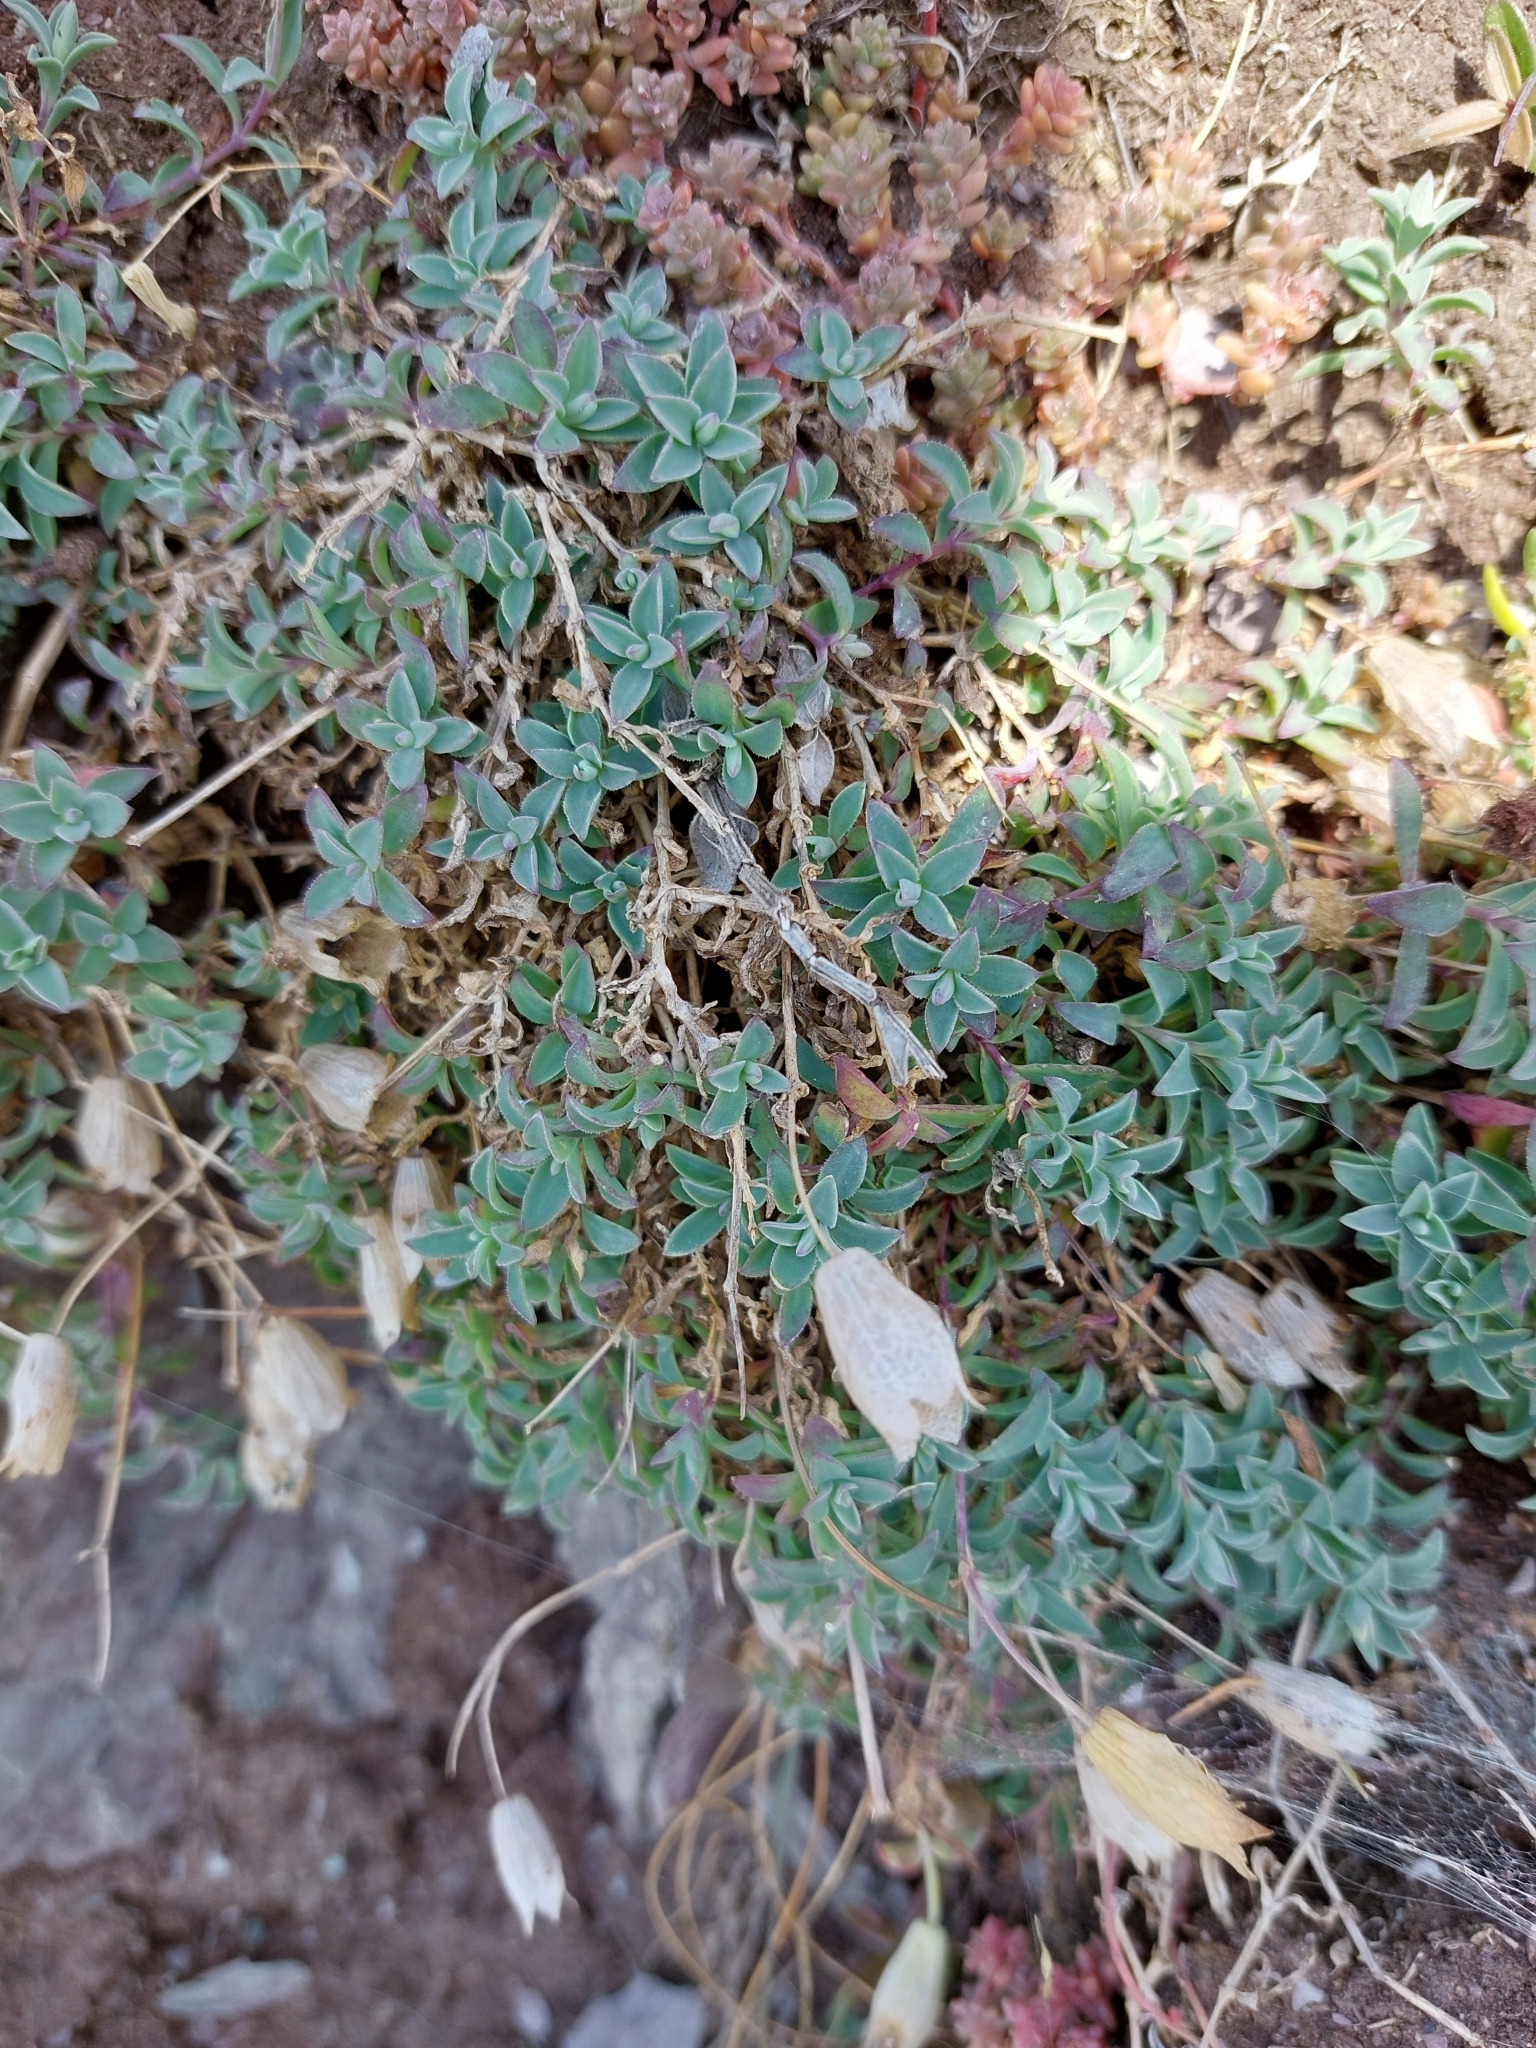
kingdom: Plantae
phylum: Tracheophyta
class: Magnoliopsida
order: Caryophyllales
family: Caryophyllaceae
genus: Silene
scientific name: Silene uniflora
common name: Sea campion
